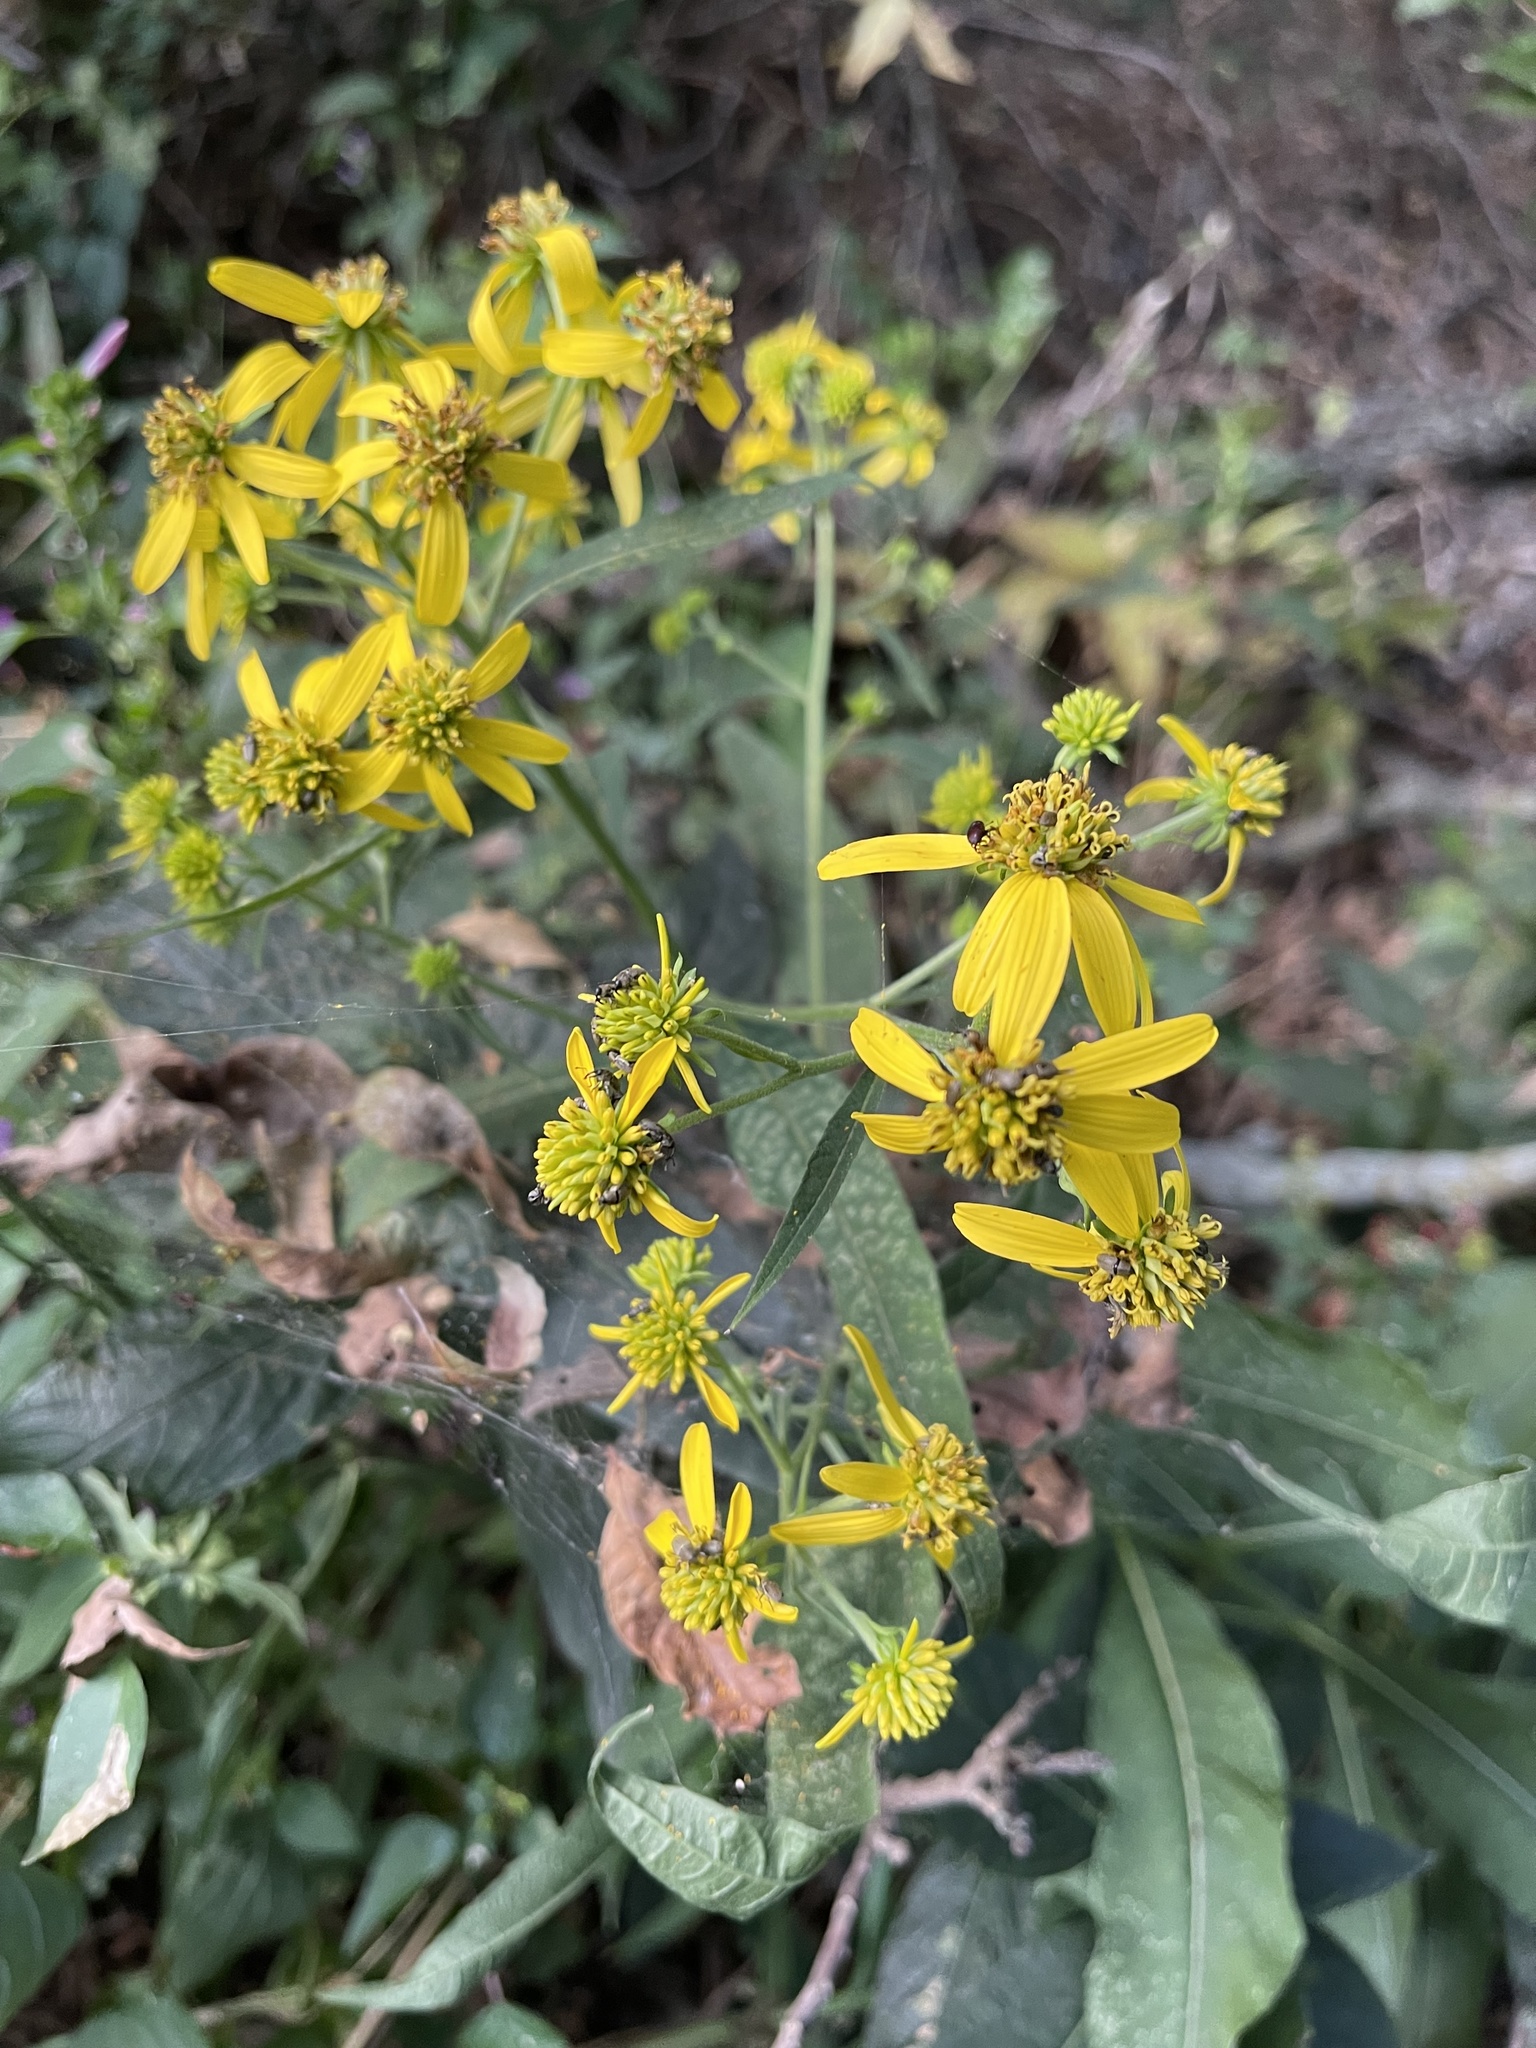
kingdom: Plantae
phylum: Tracheophyta
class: Magnoliopsida
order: Asterales
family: Asteraceae
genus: Verbesina
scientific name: Verbesina alternifolia
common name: Wingstem
